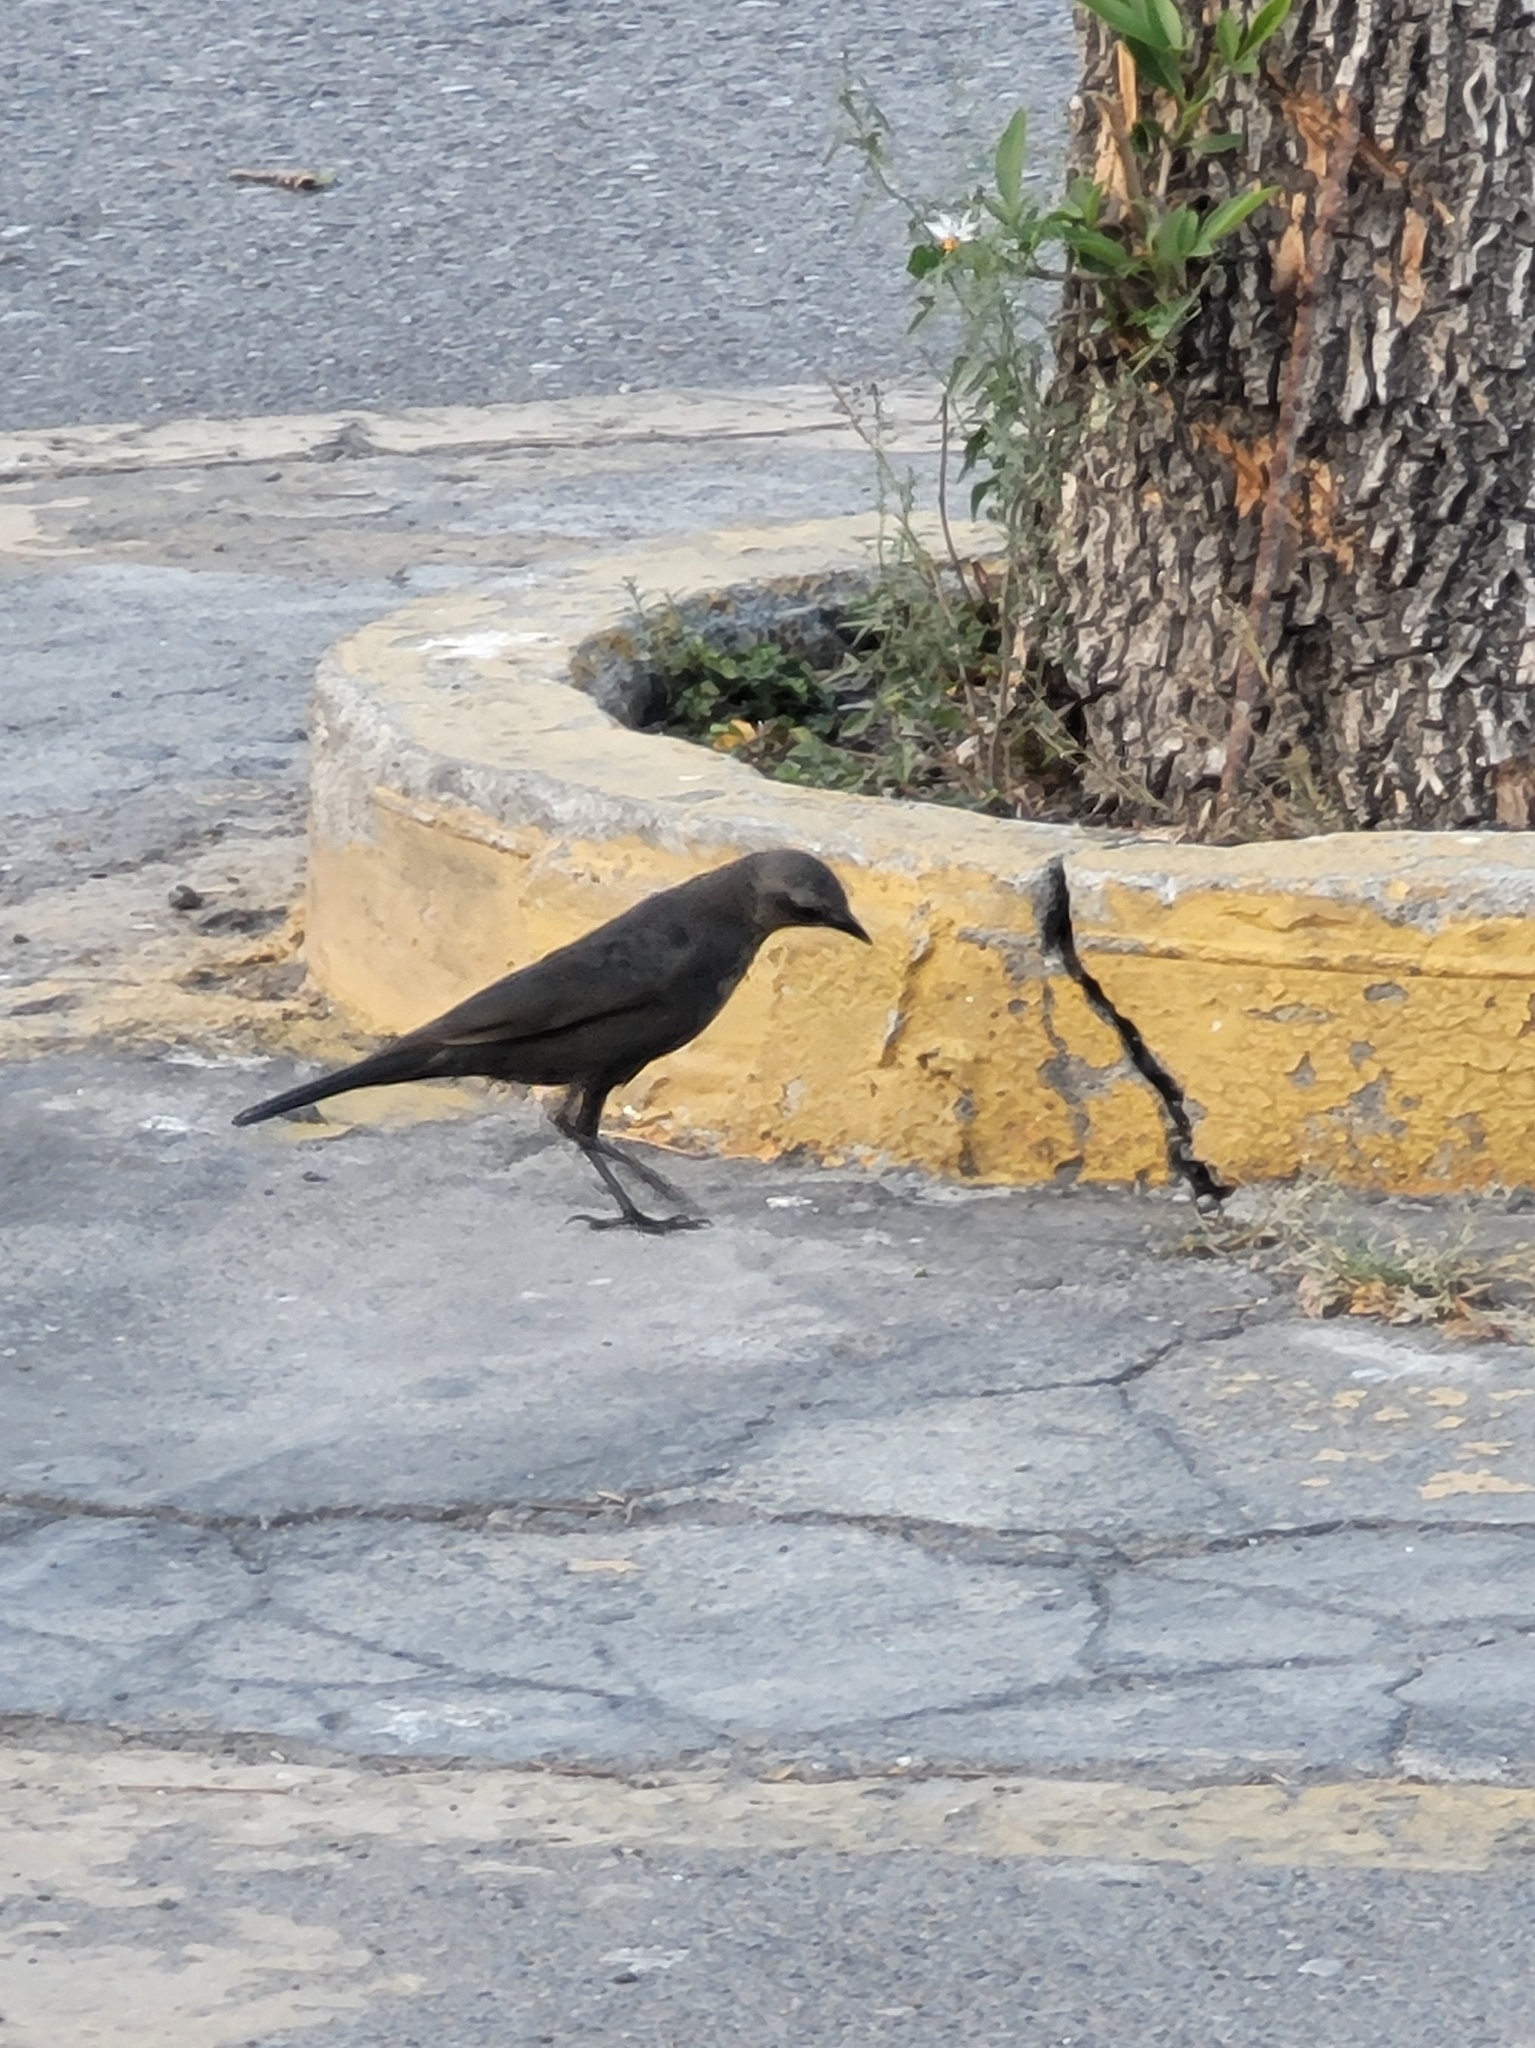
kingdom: Animalia
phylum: Chordata
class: Aves
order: Passeriformes
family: Icteridae
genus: Euphagus
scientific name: Euphagus cyanocephalus
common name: Brewer's blackbird
